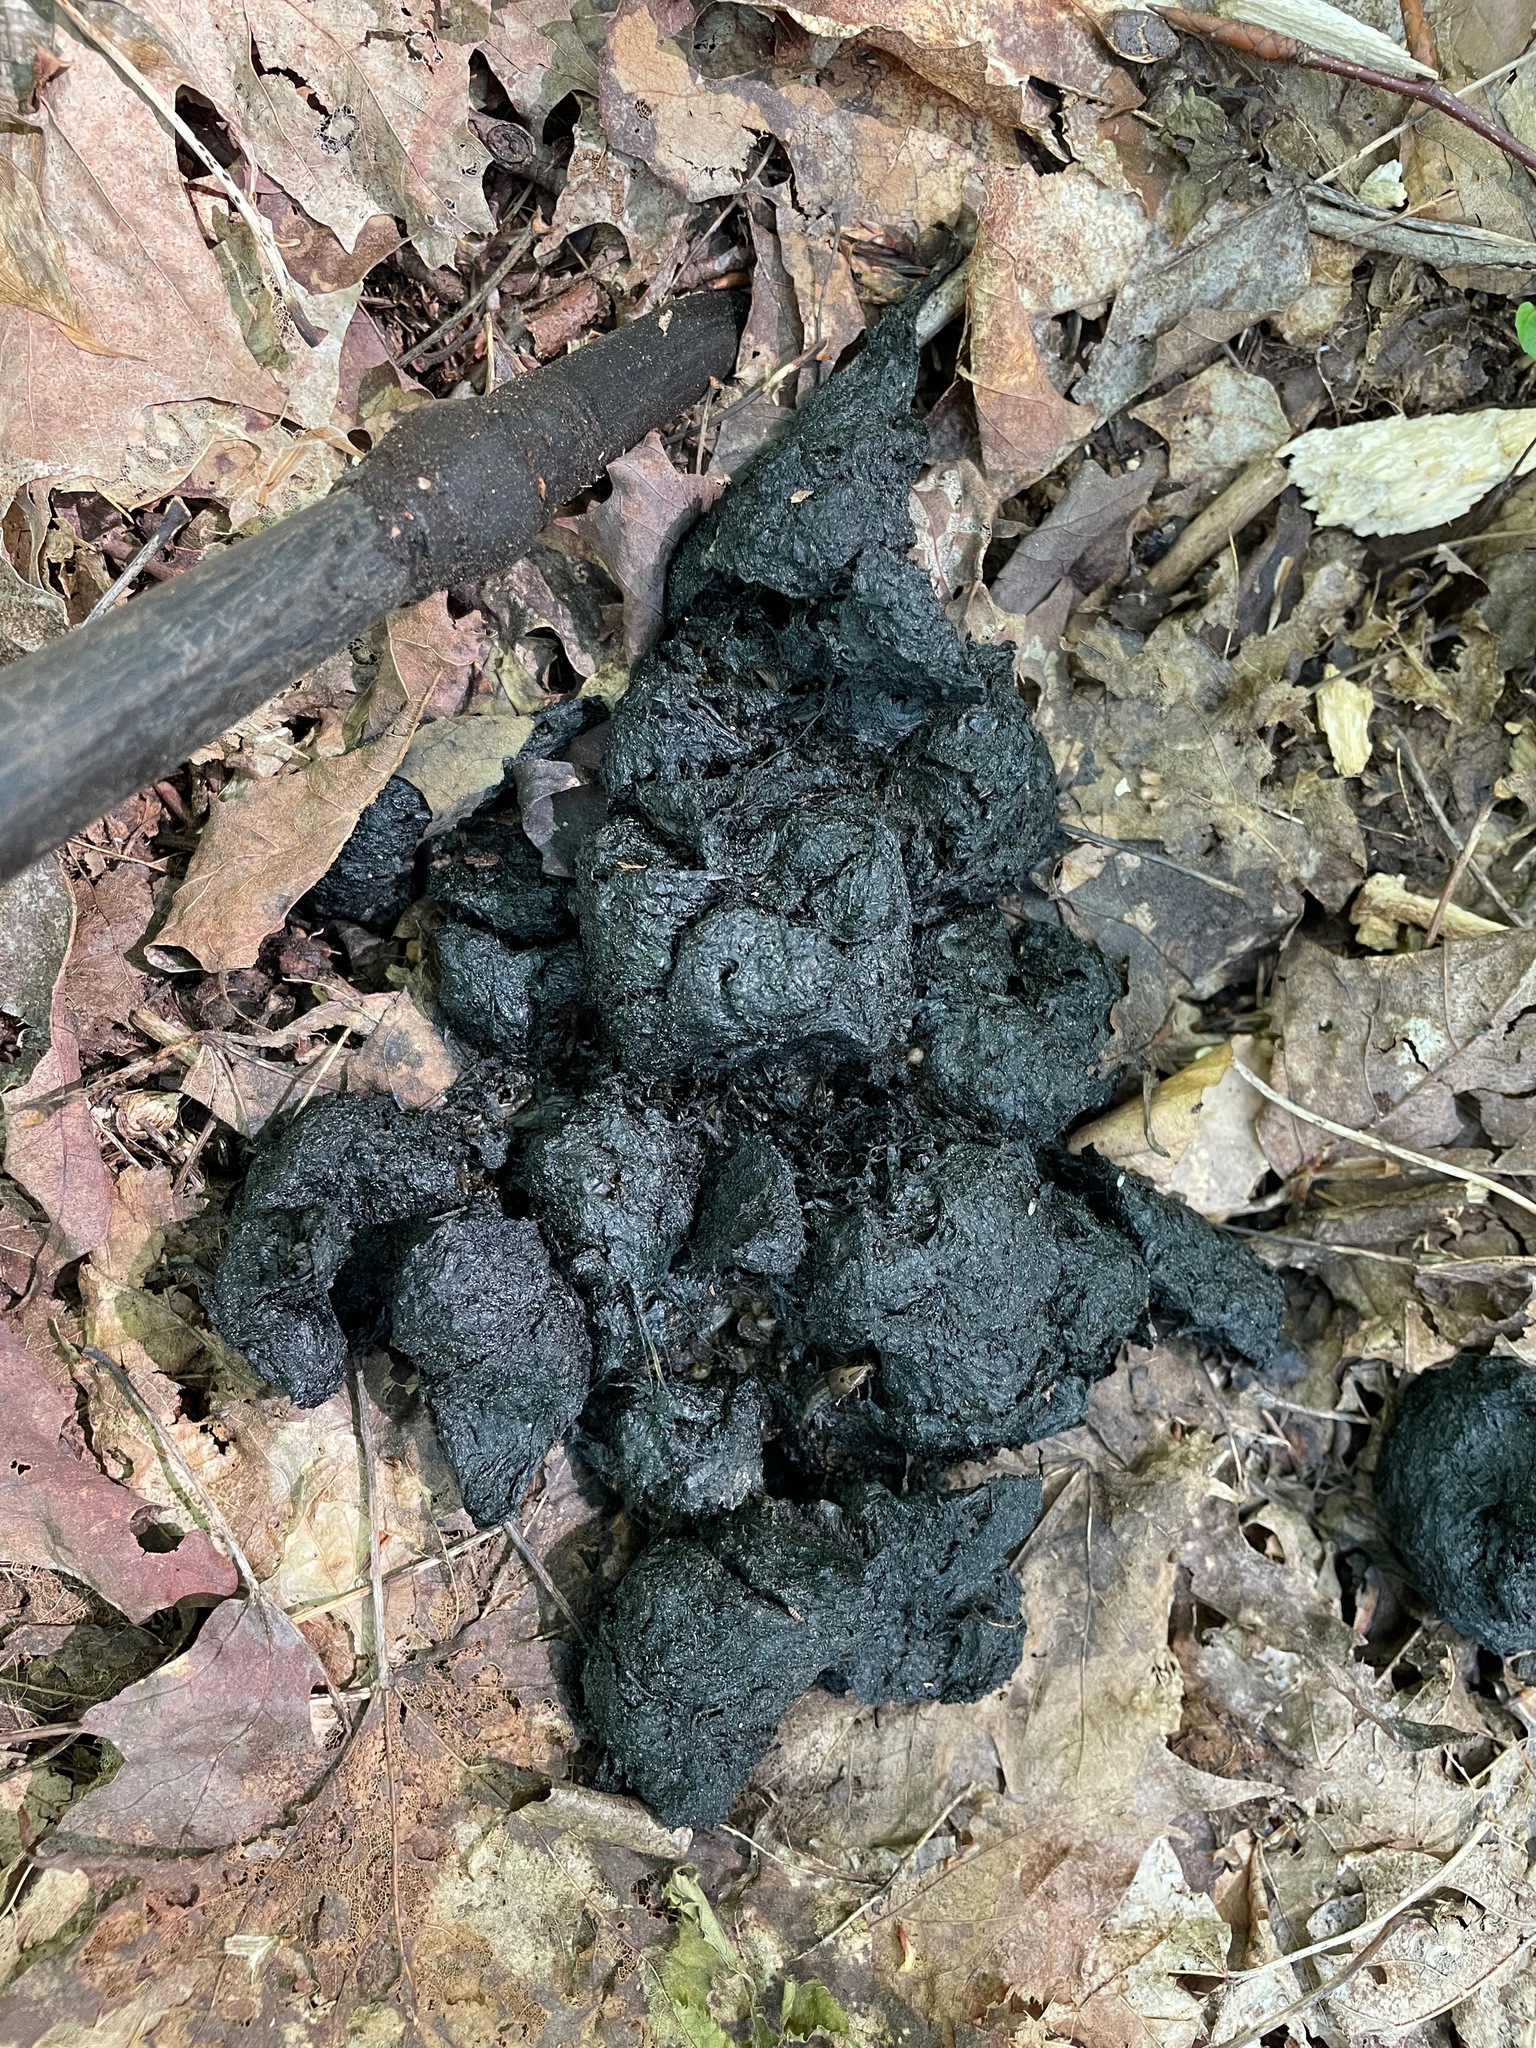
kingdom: Animalia
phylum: Chordata
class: Mammalia
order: Carnivora
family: Ursidae
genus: Ursus
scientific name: Ursus americanus
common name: American black bear
